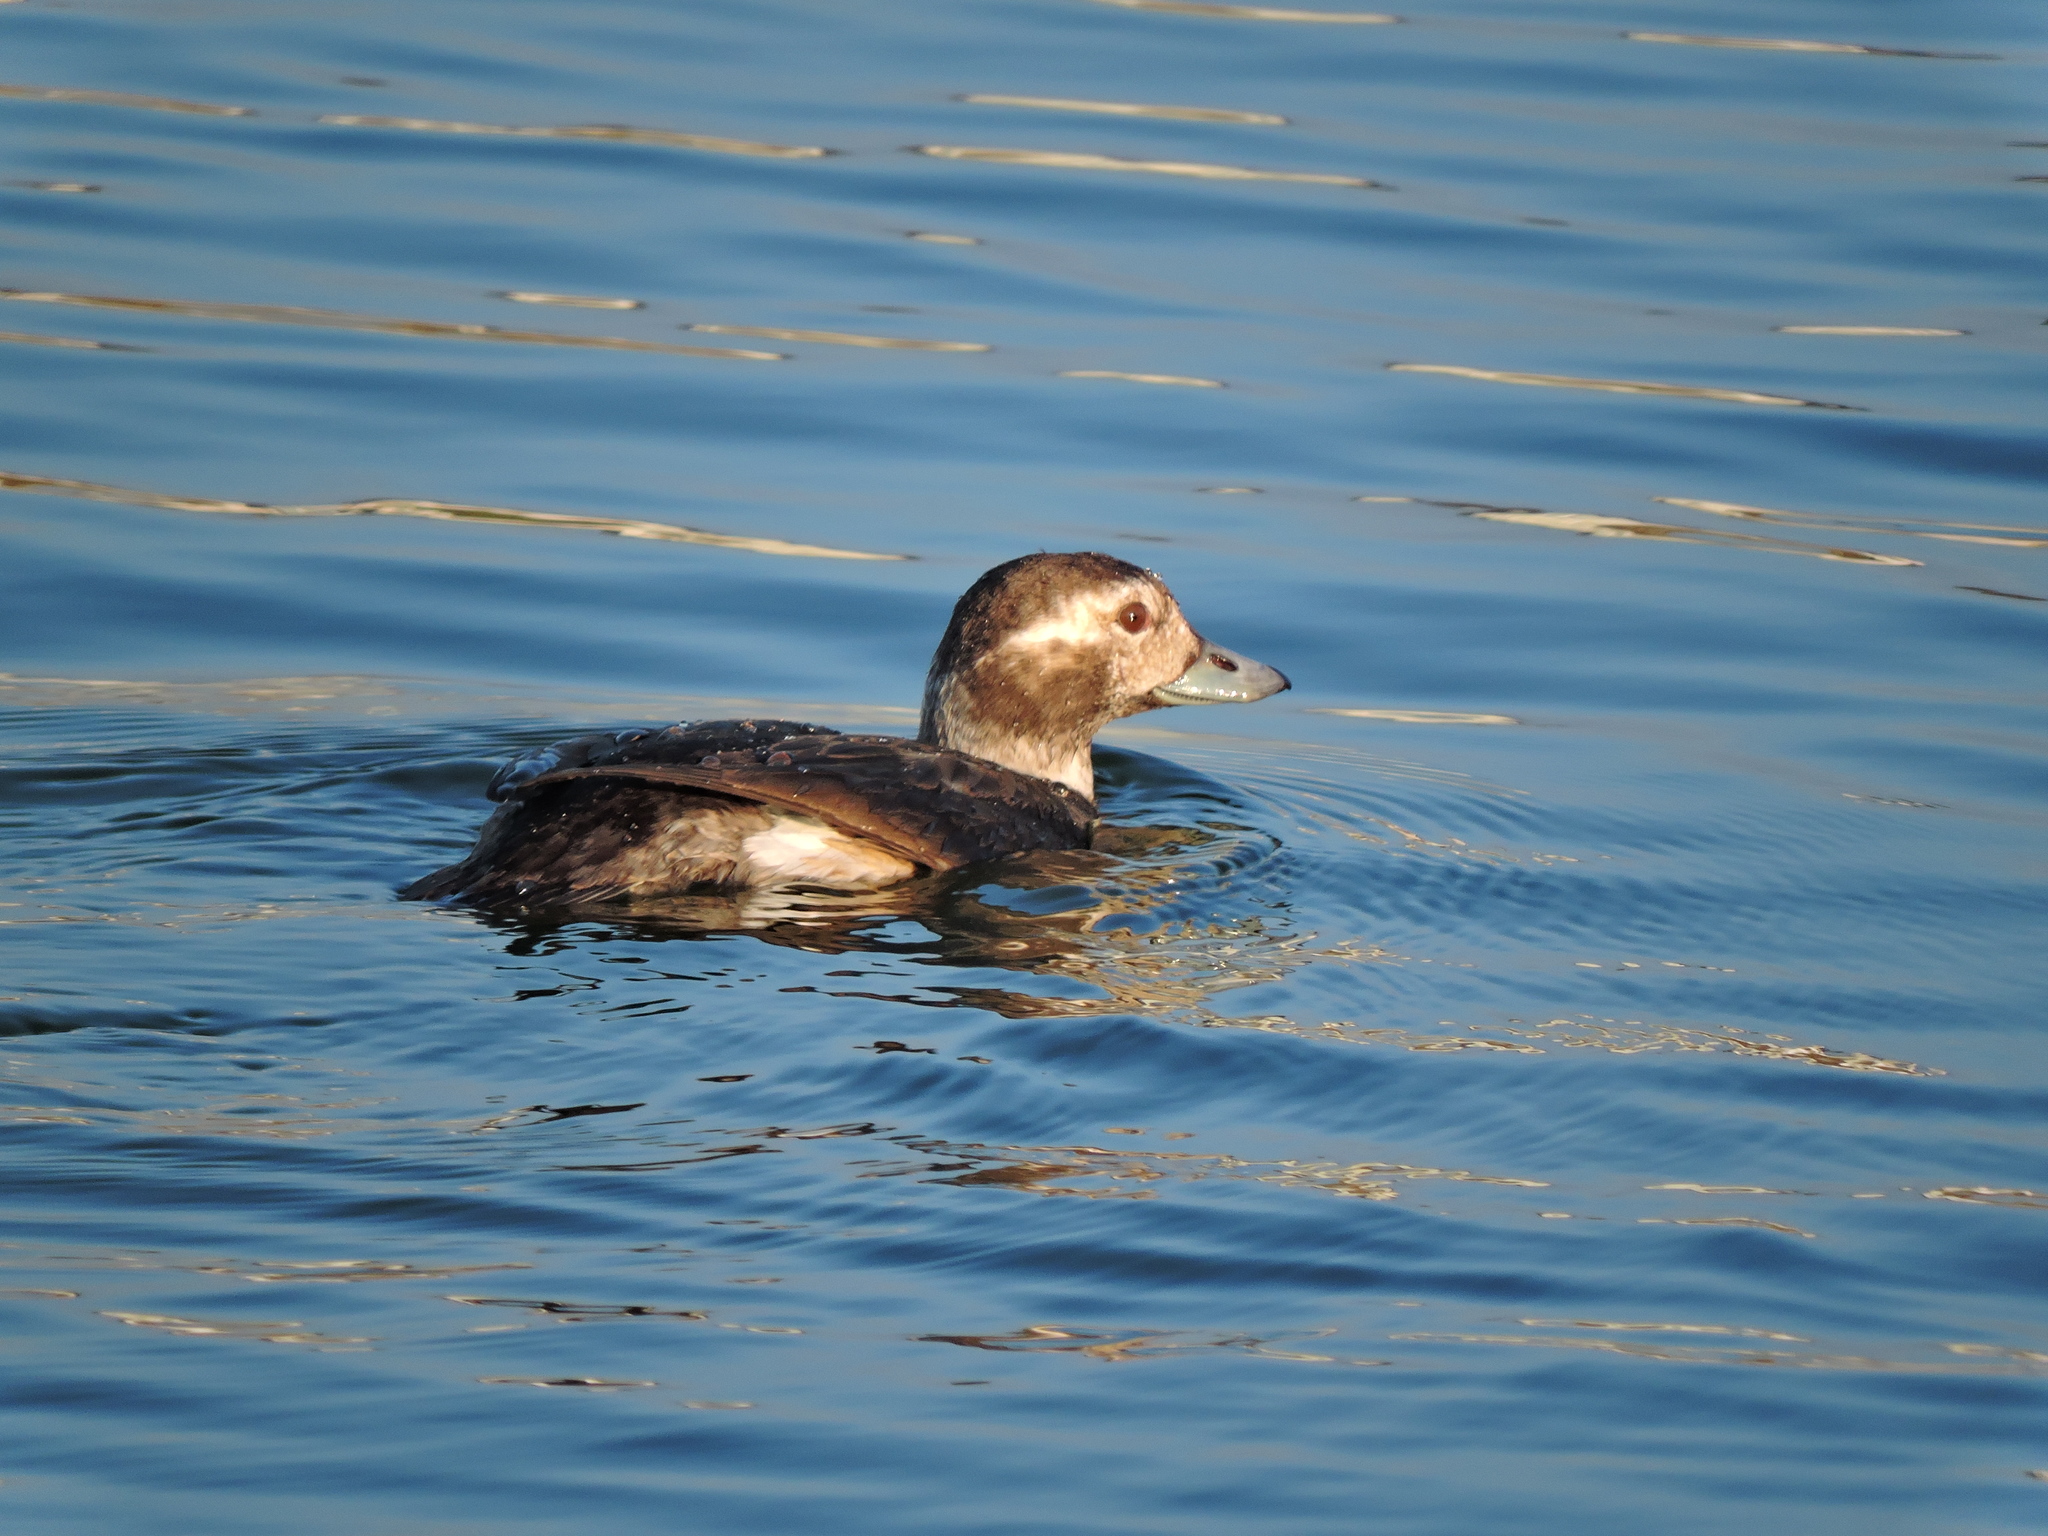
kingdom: Animalia
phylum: Chordata
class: Aves
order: Anseriformes
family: Anatidae
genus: Clangula
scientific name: Clangula hyemalis
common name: Long-tailed duck
